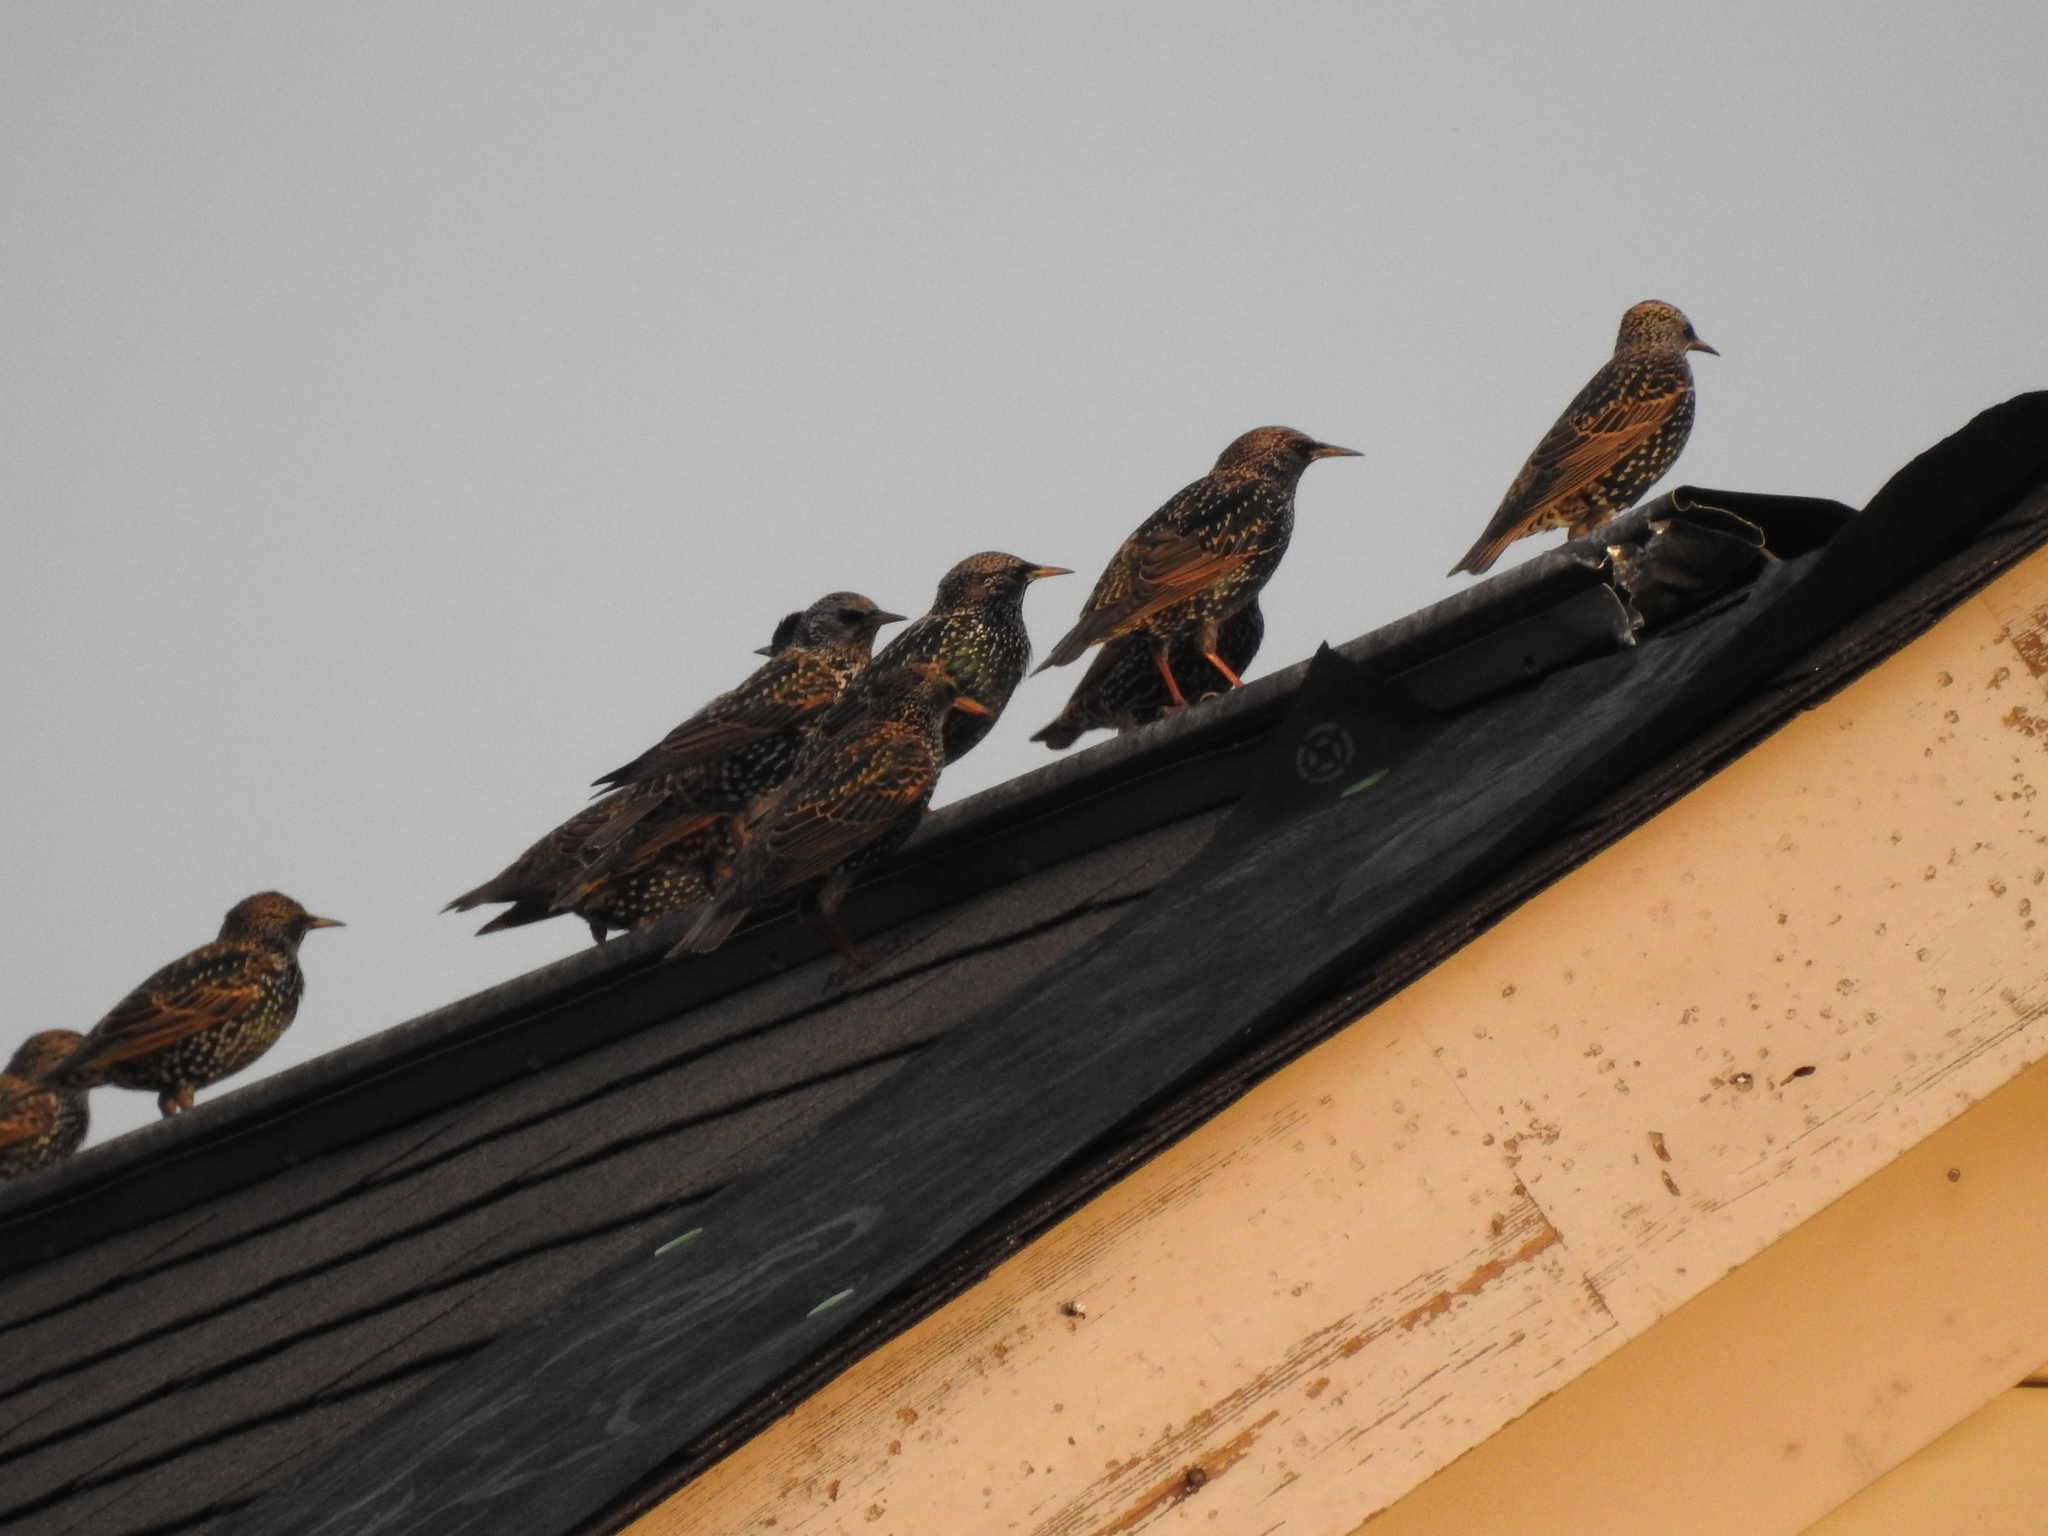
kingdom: Animalia
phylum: Chordata
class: Aves
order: Passeriformes
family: Sturnidae
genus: Sturnus
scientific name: Sturnus vulgaris
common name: Common starling
